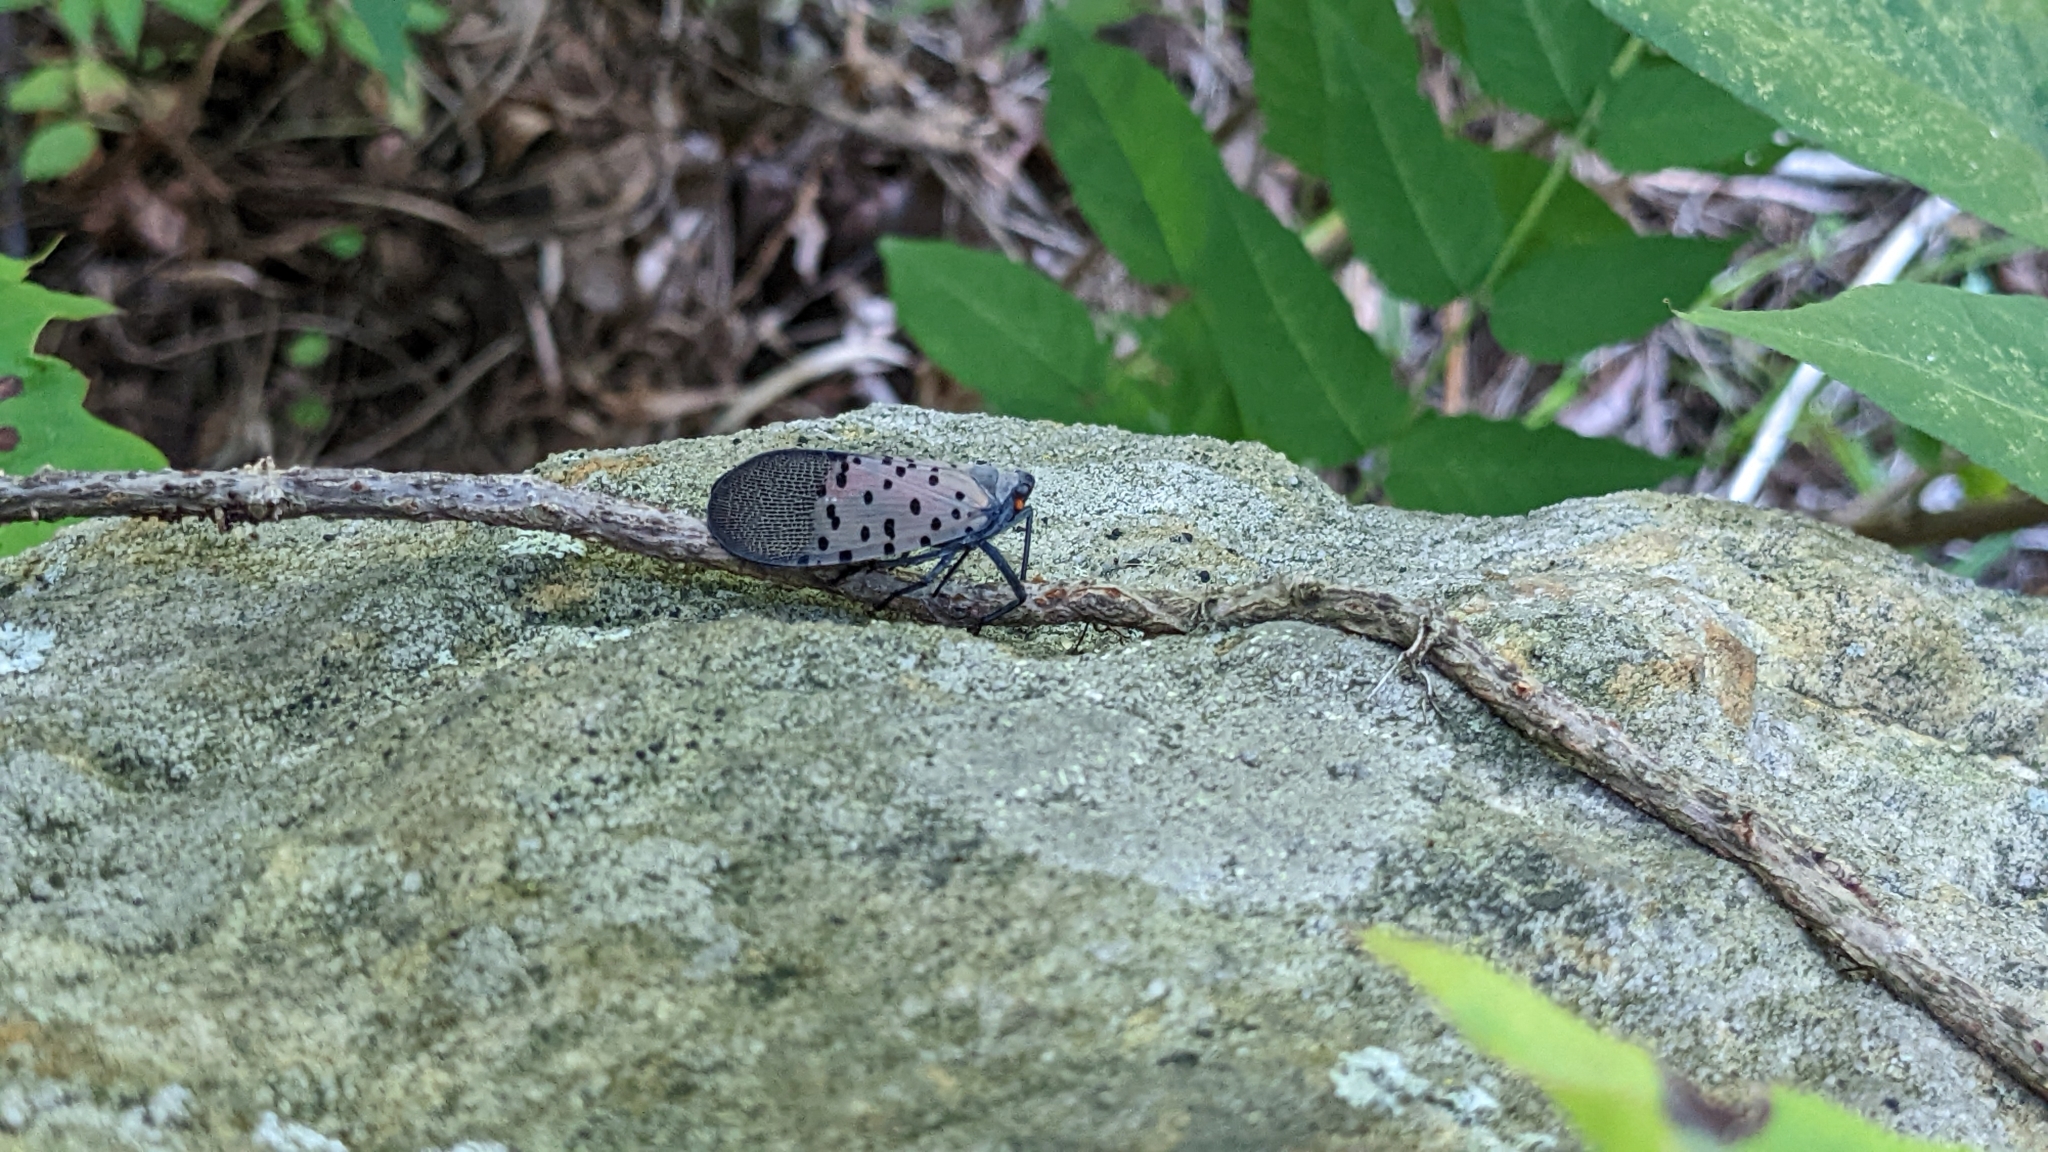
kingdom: Animalia
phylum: Arthropoda
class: Insecta
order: Hemiptera
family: Fulgoridae
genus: Lycorma
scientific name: Lycorma delicatula
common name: Spotted lanternfly
